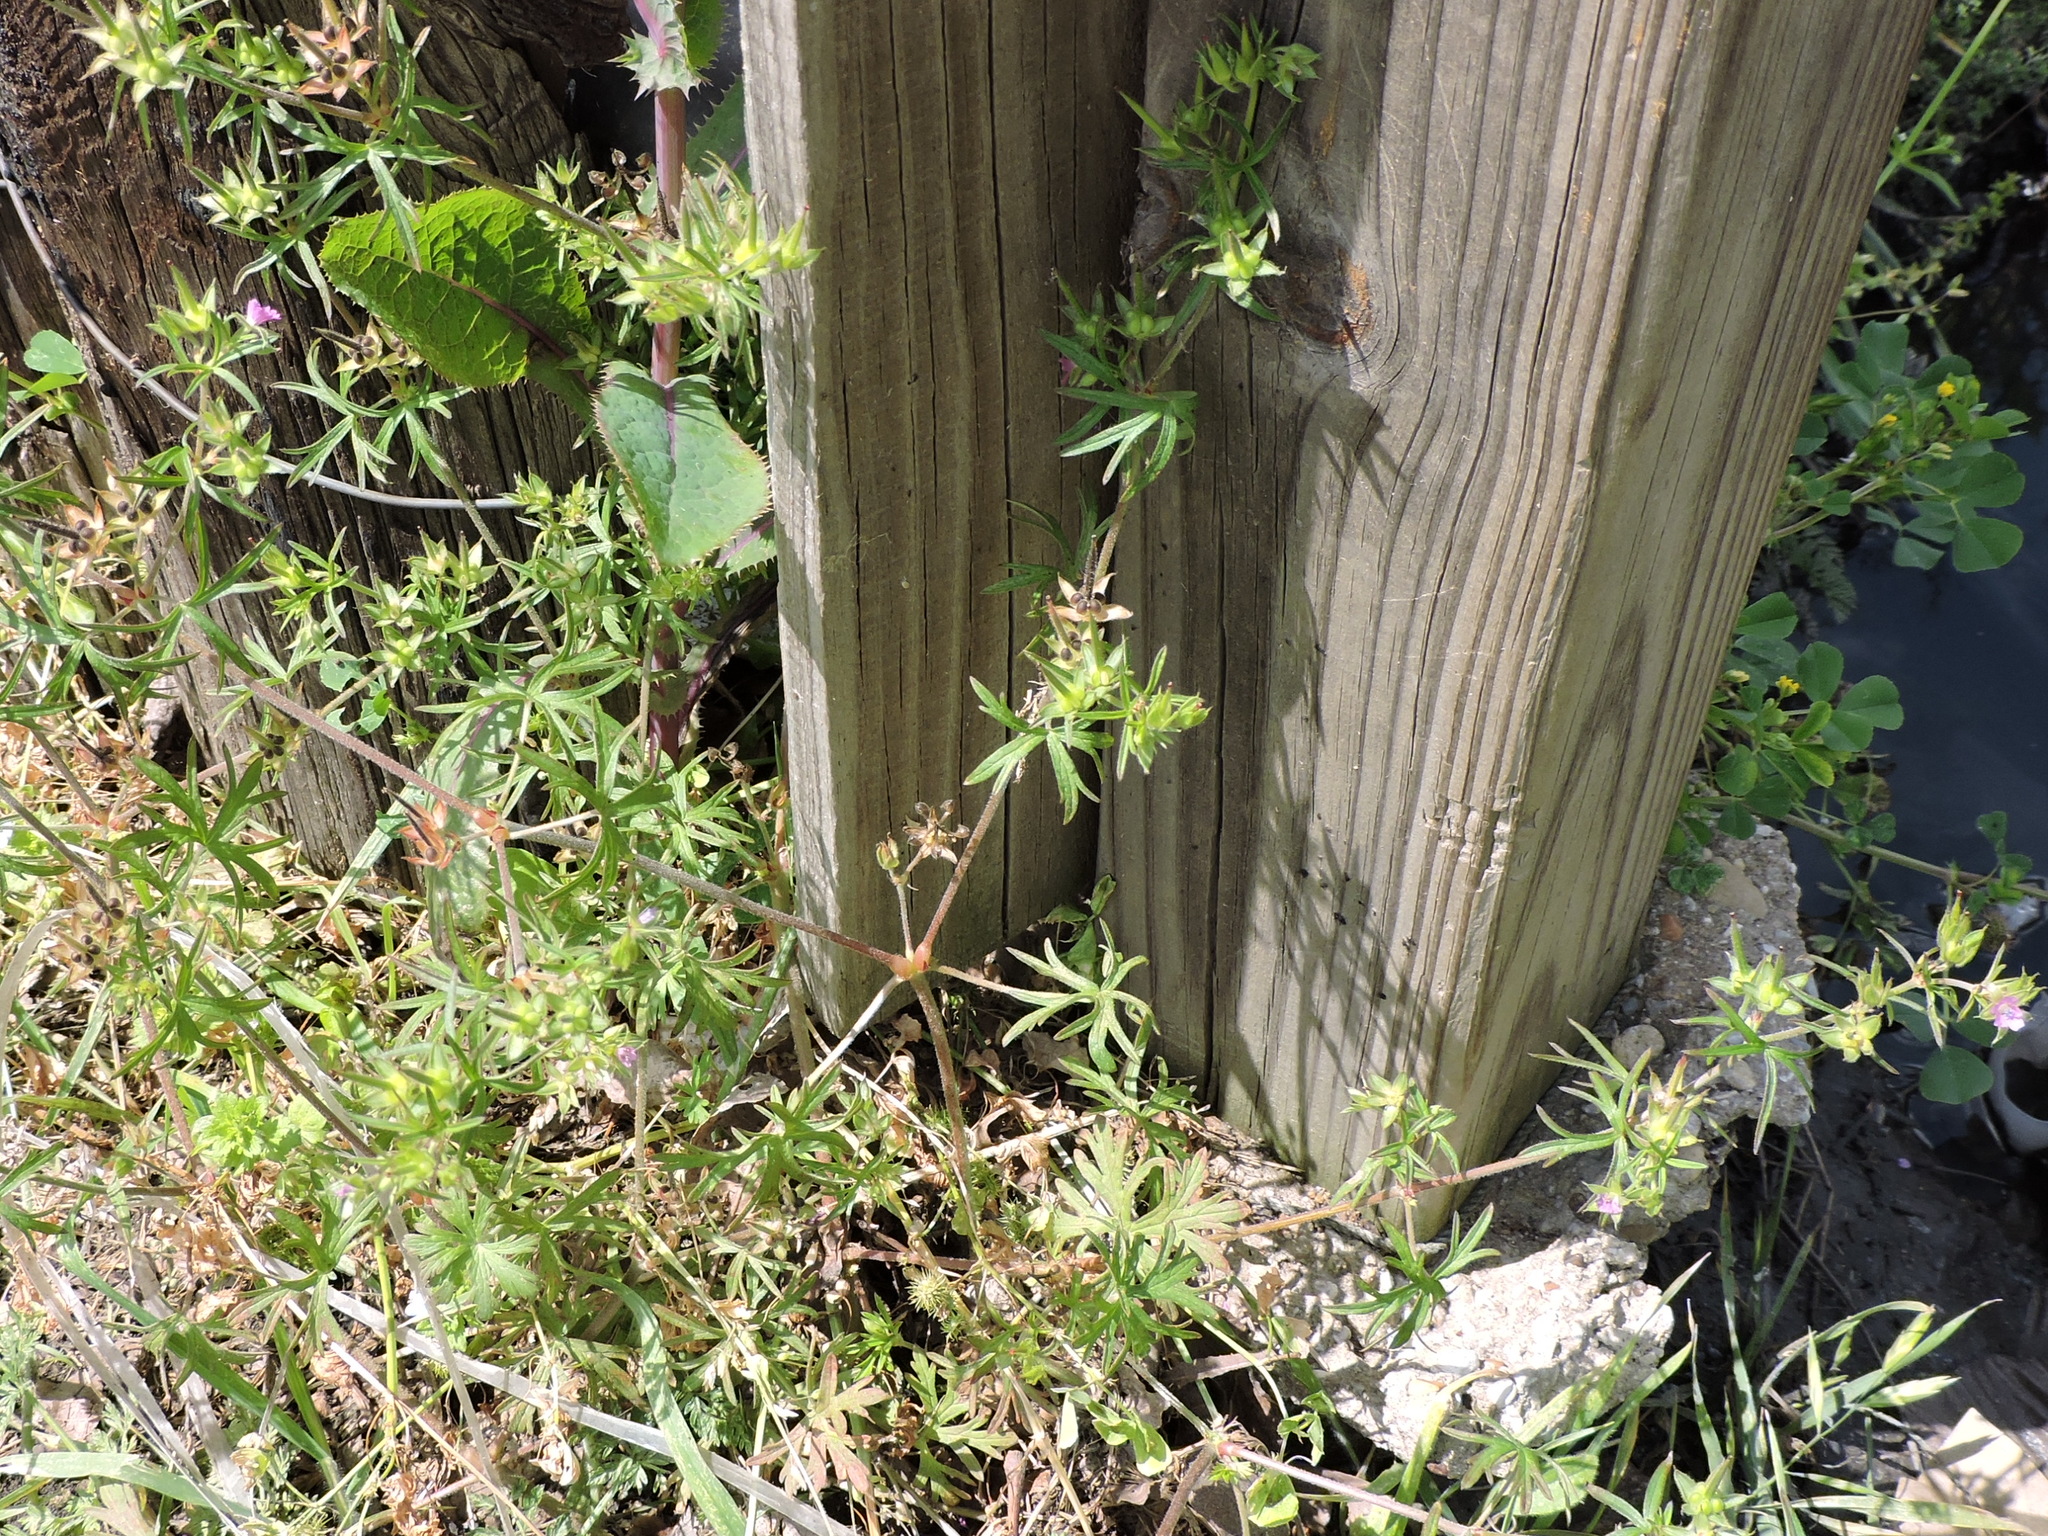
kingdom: Plantae
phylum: Tracheophyta
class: Magnoliopsida
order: Geraniales
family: Geraniaceae
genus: Geranium
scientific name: Geranium dissectum
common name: Cut-leaved crane's-bill
